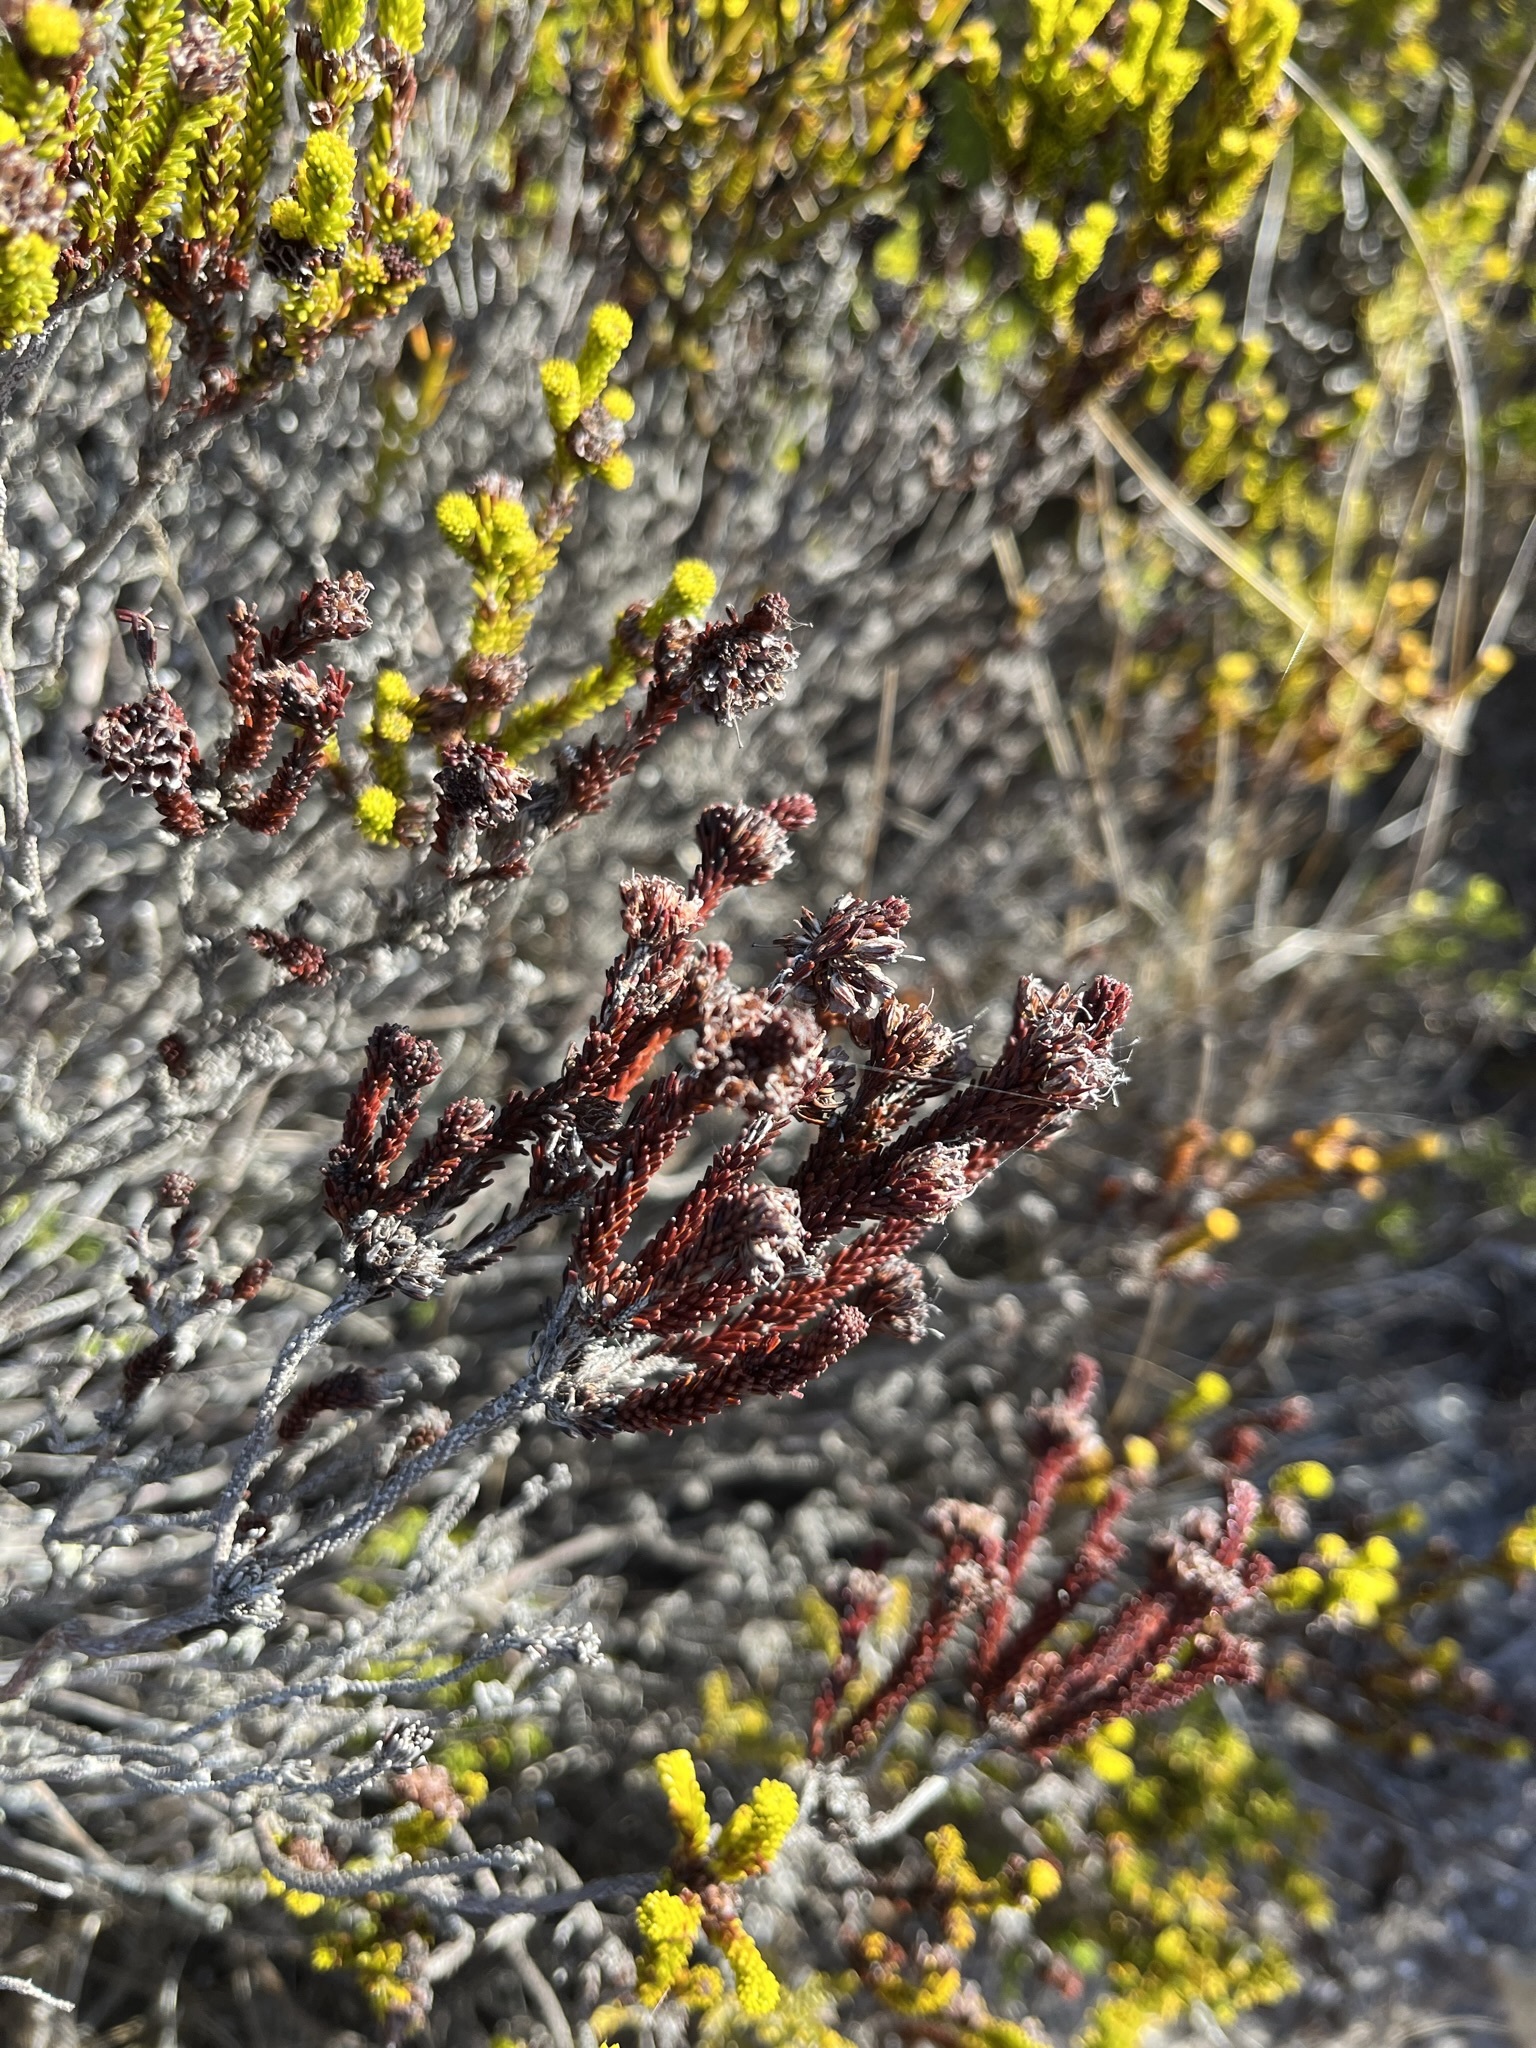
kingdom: Plantae
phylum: Tracheophyta
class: Magnoliopsida
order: Ericales
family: Ericaceae
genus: Erica
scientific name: Erica bruniifolia
